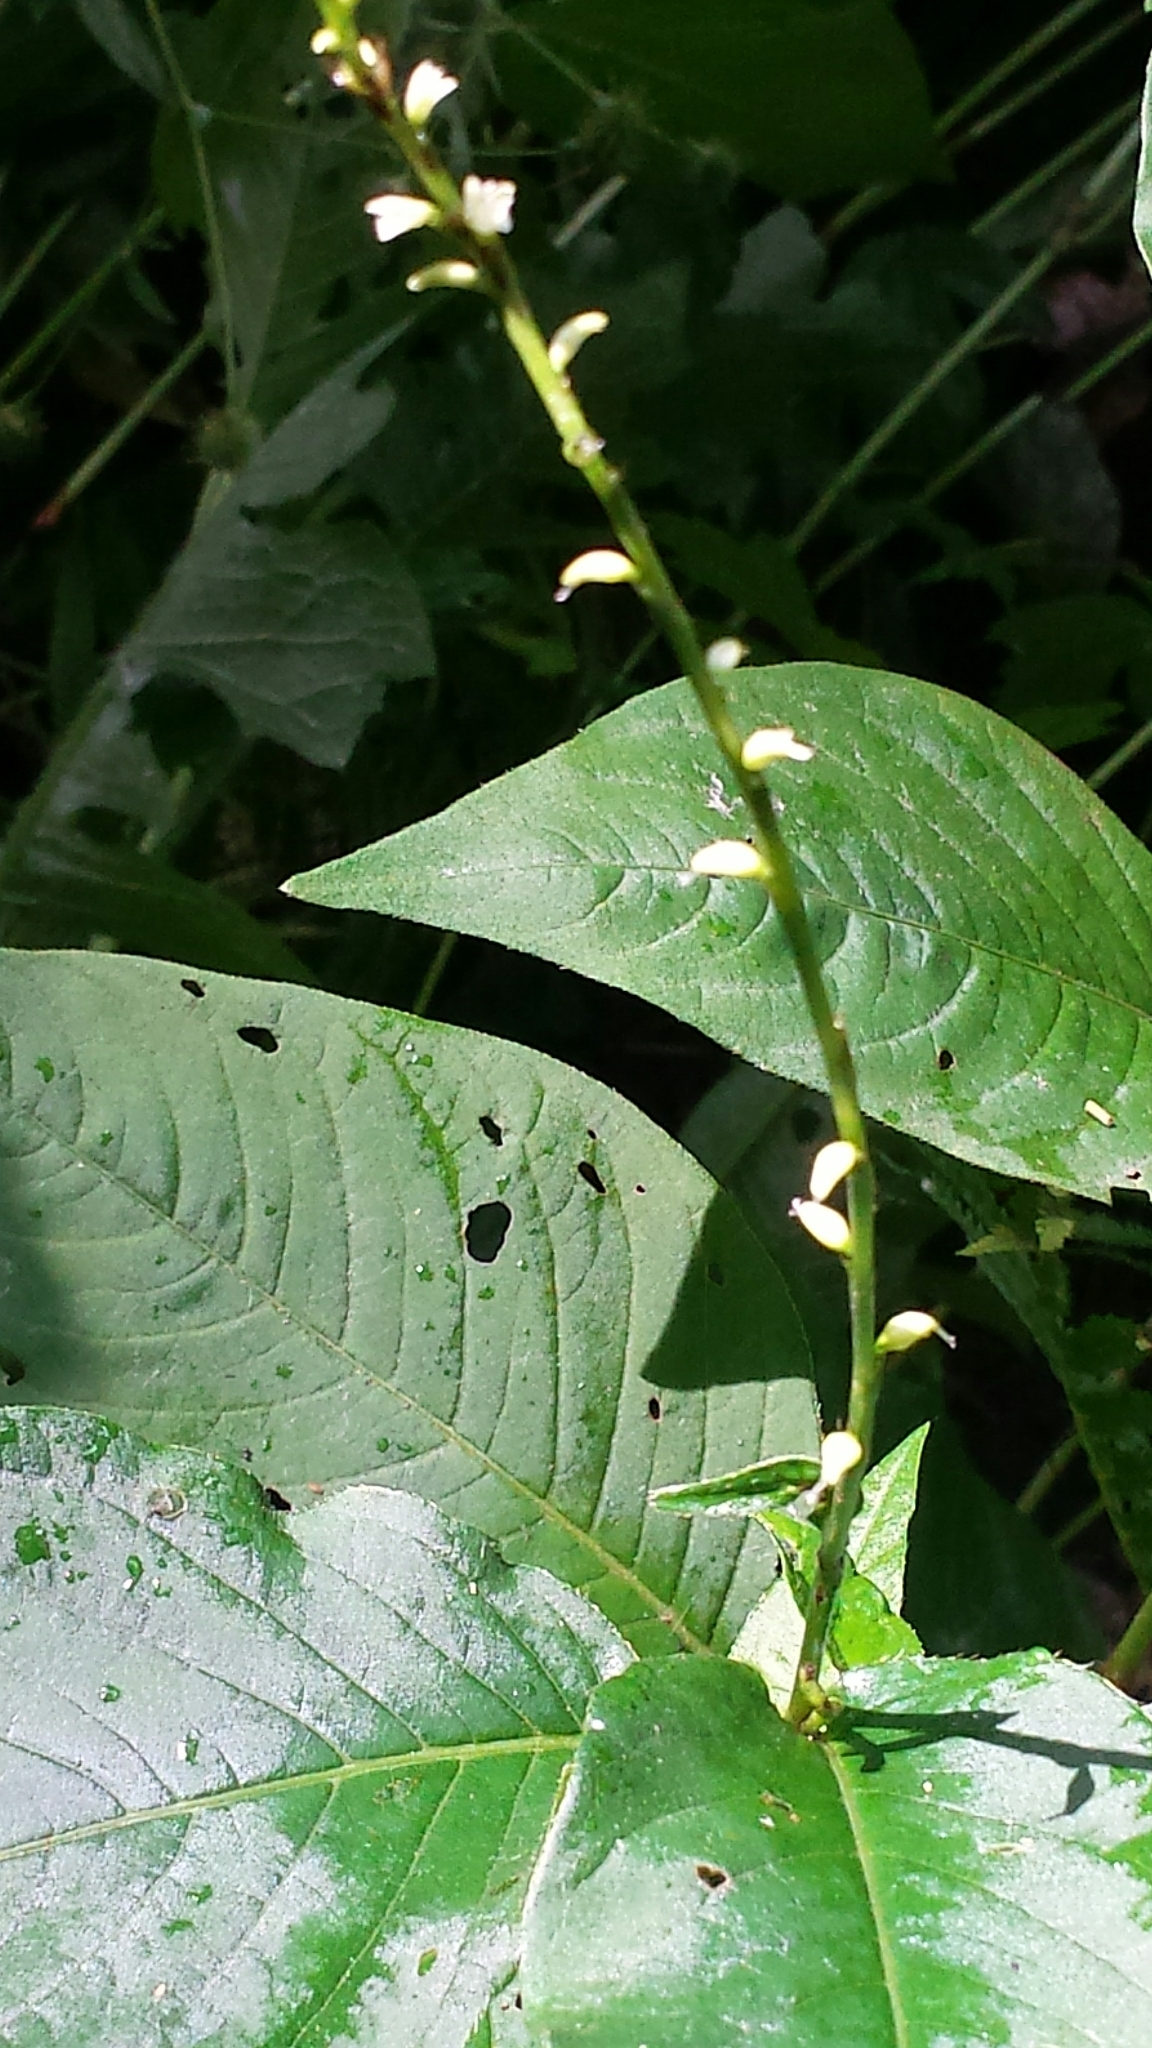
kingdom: Plantae
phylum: Tracheophyta
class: Magnoliopsida
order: Caryophyllales
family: Polygonaceae
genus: Persicaria
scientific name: Persicaria virginiana
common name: Jumpseed
